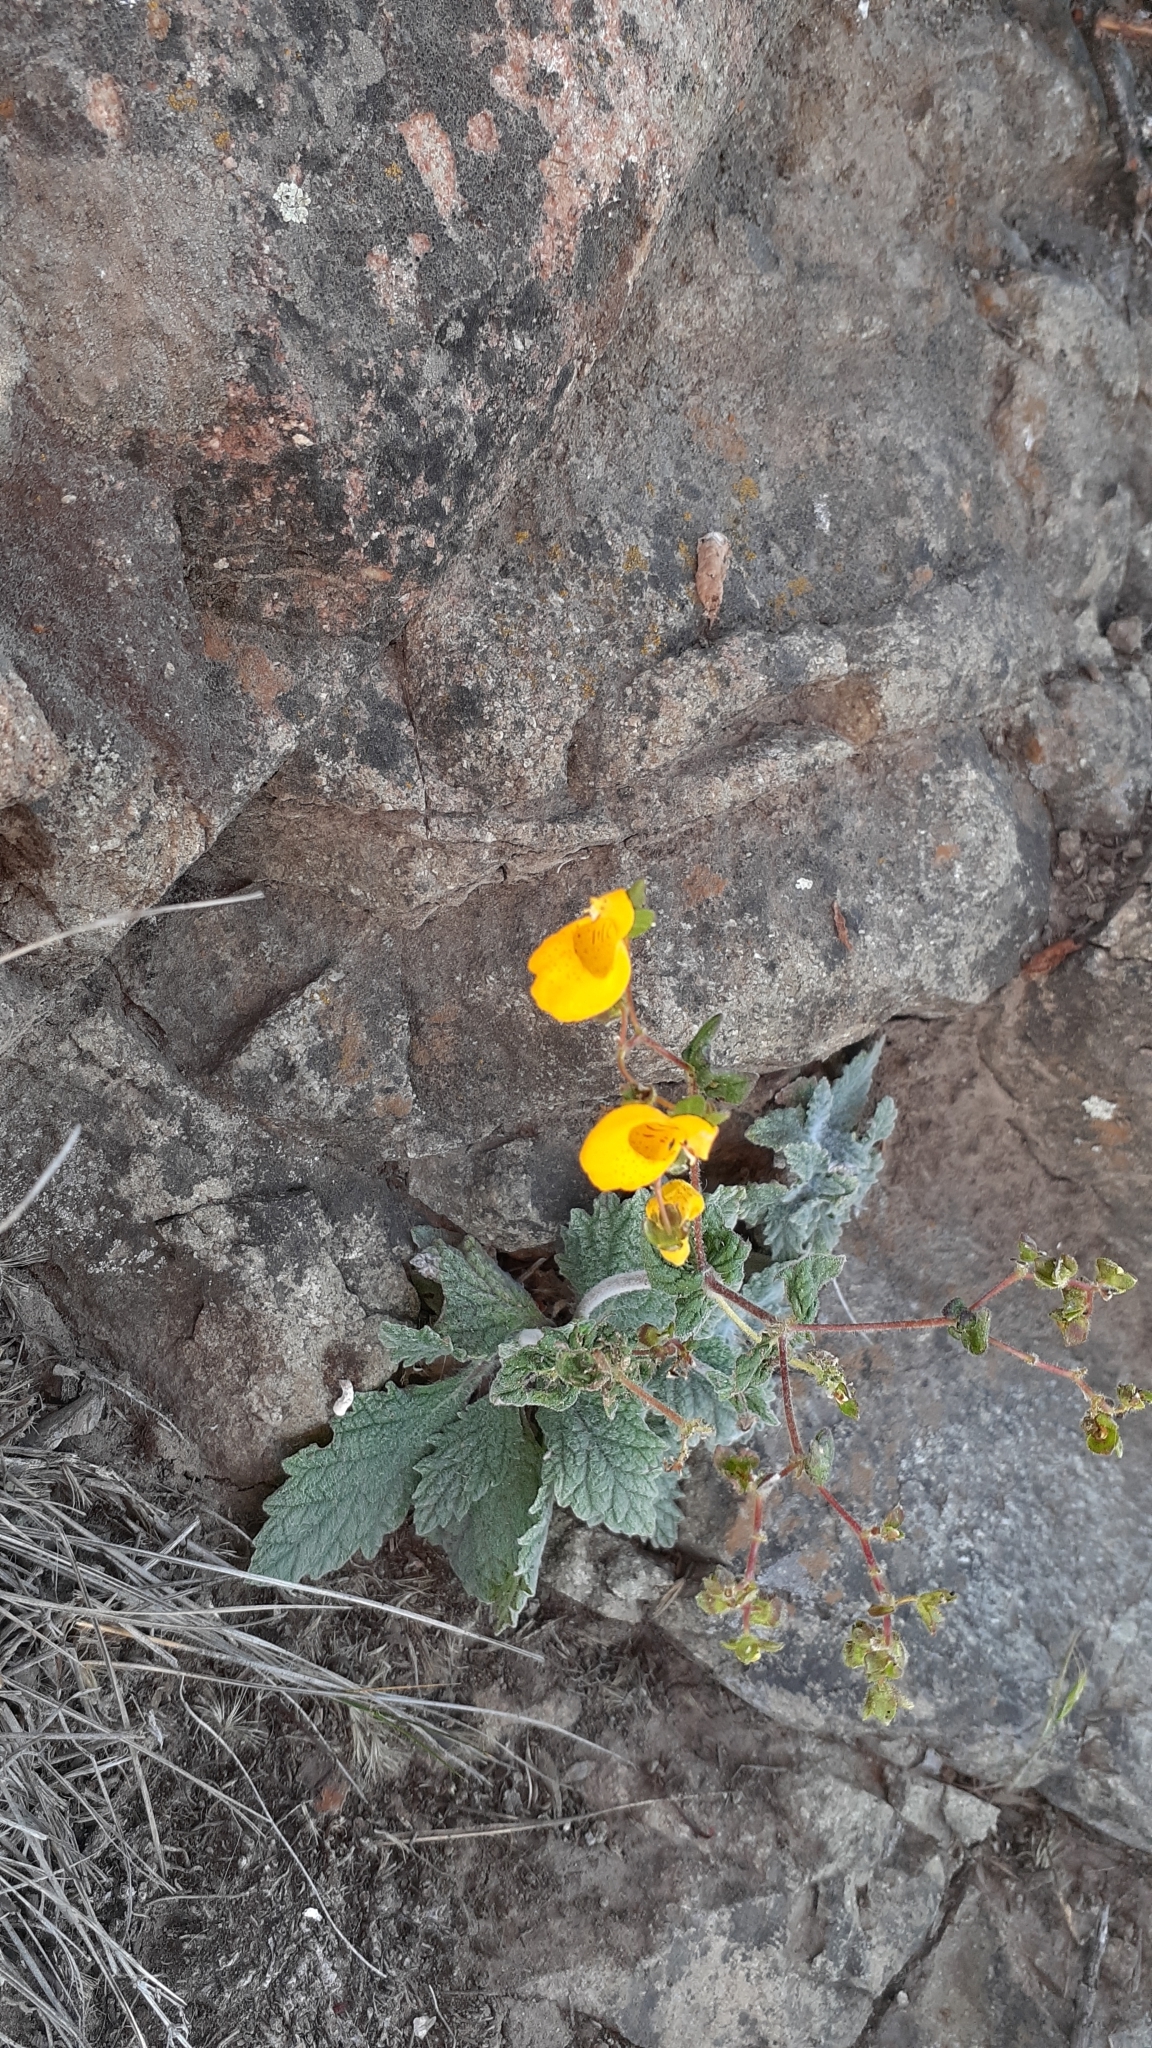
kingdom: Plantae
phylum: Tracheophyta
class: Magnoliopsida
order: Lamiales
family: Calceolariaceae
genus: Calceolaria
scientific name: Calceolaria corymbosa
